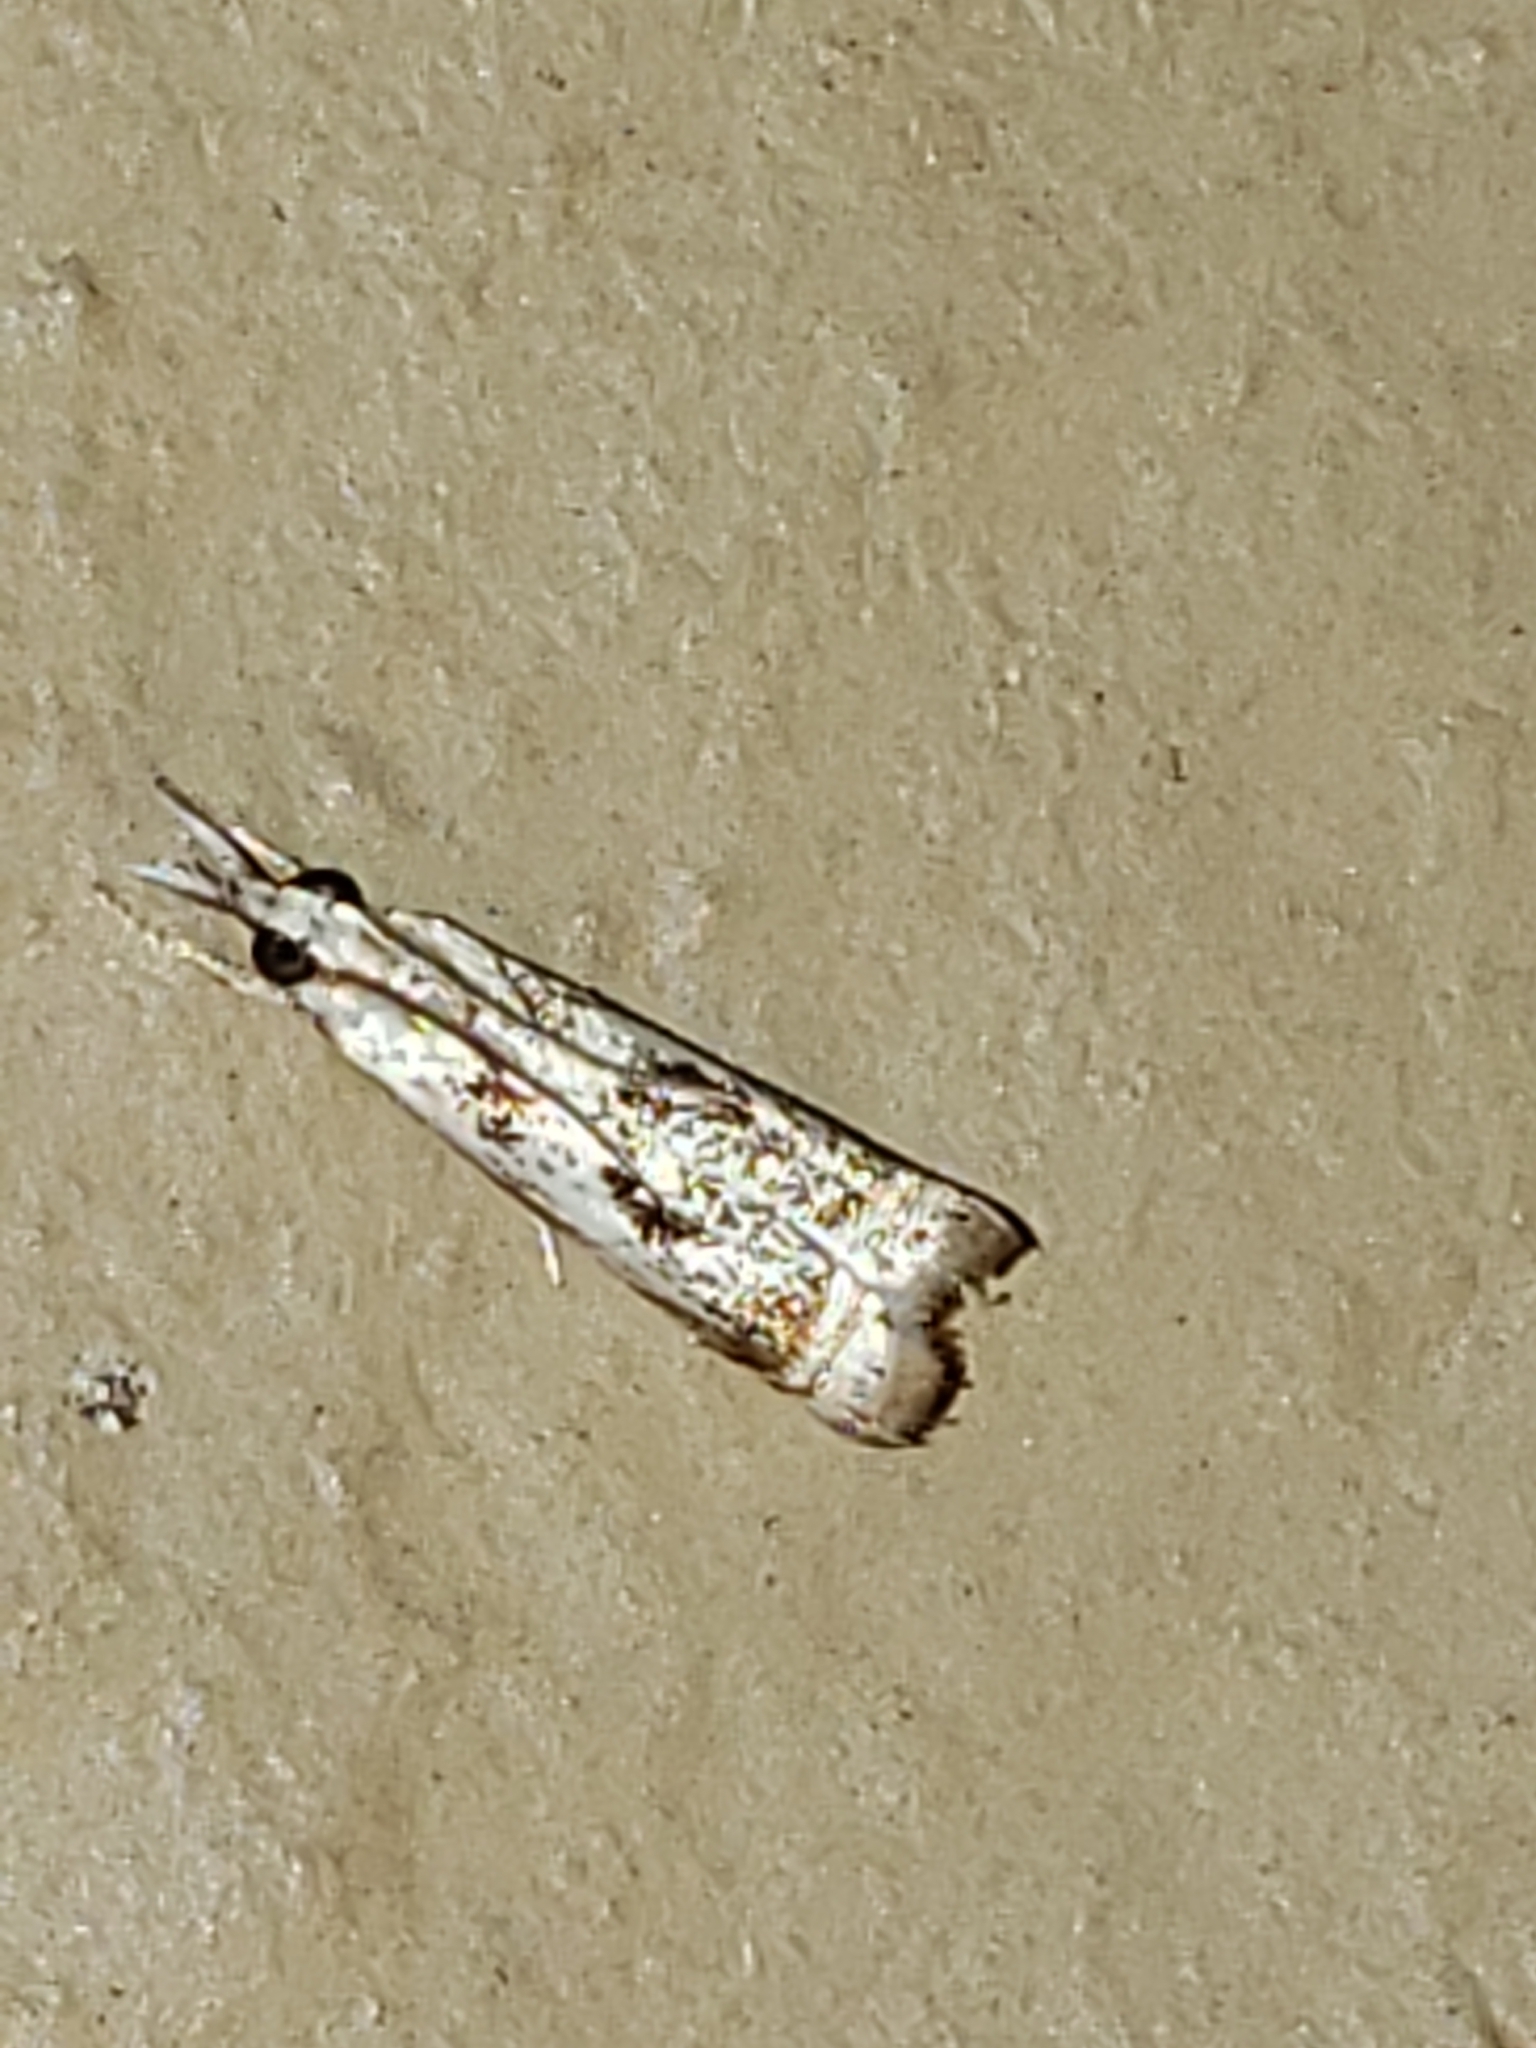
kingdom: Animalia
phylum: Arthropoda
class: Insecta
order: Lepidoptera
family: Crambidae
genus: Microcrambus
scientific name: Microcrambus elegans
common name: Elegant grass-veneer
